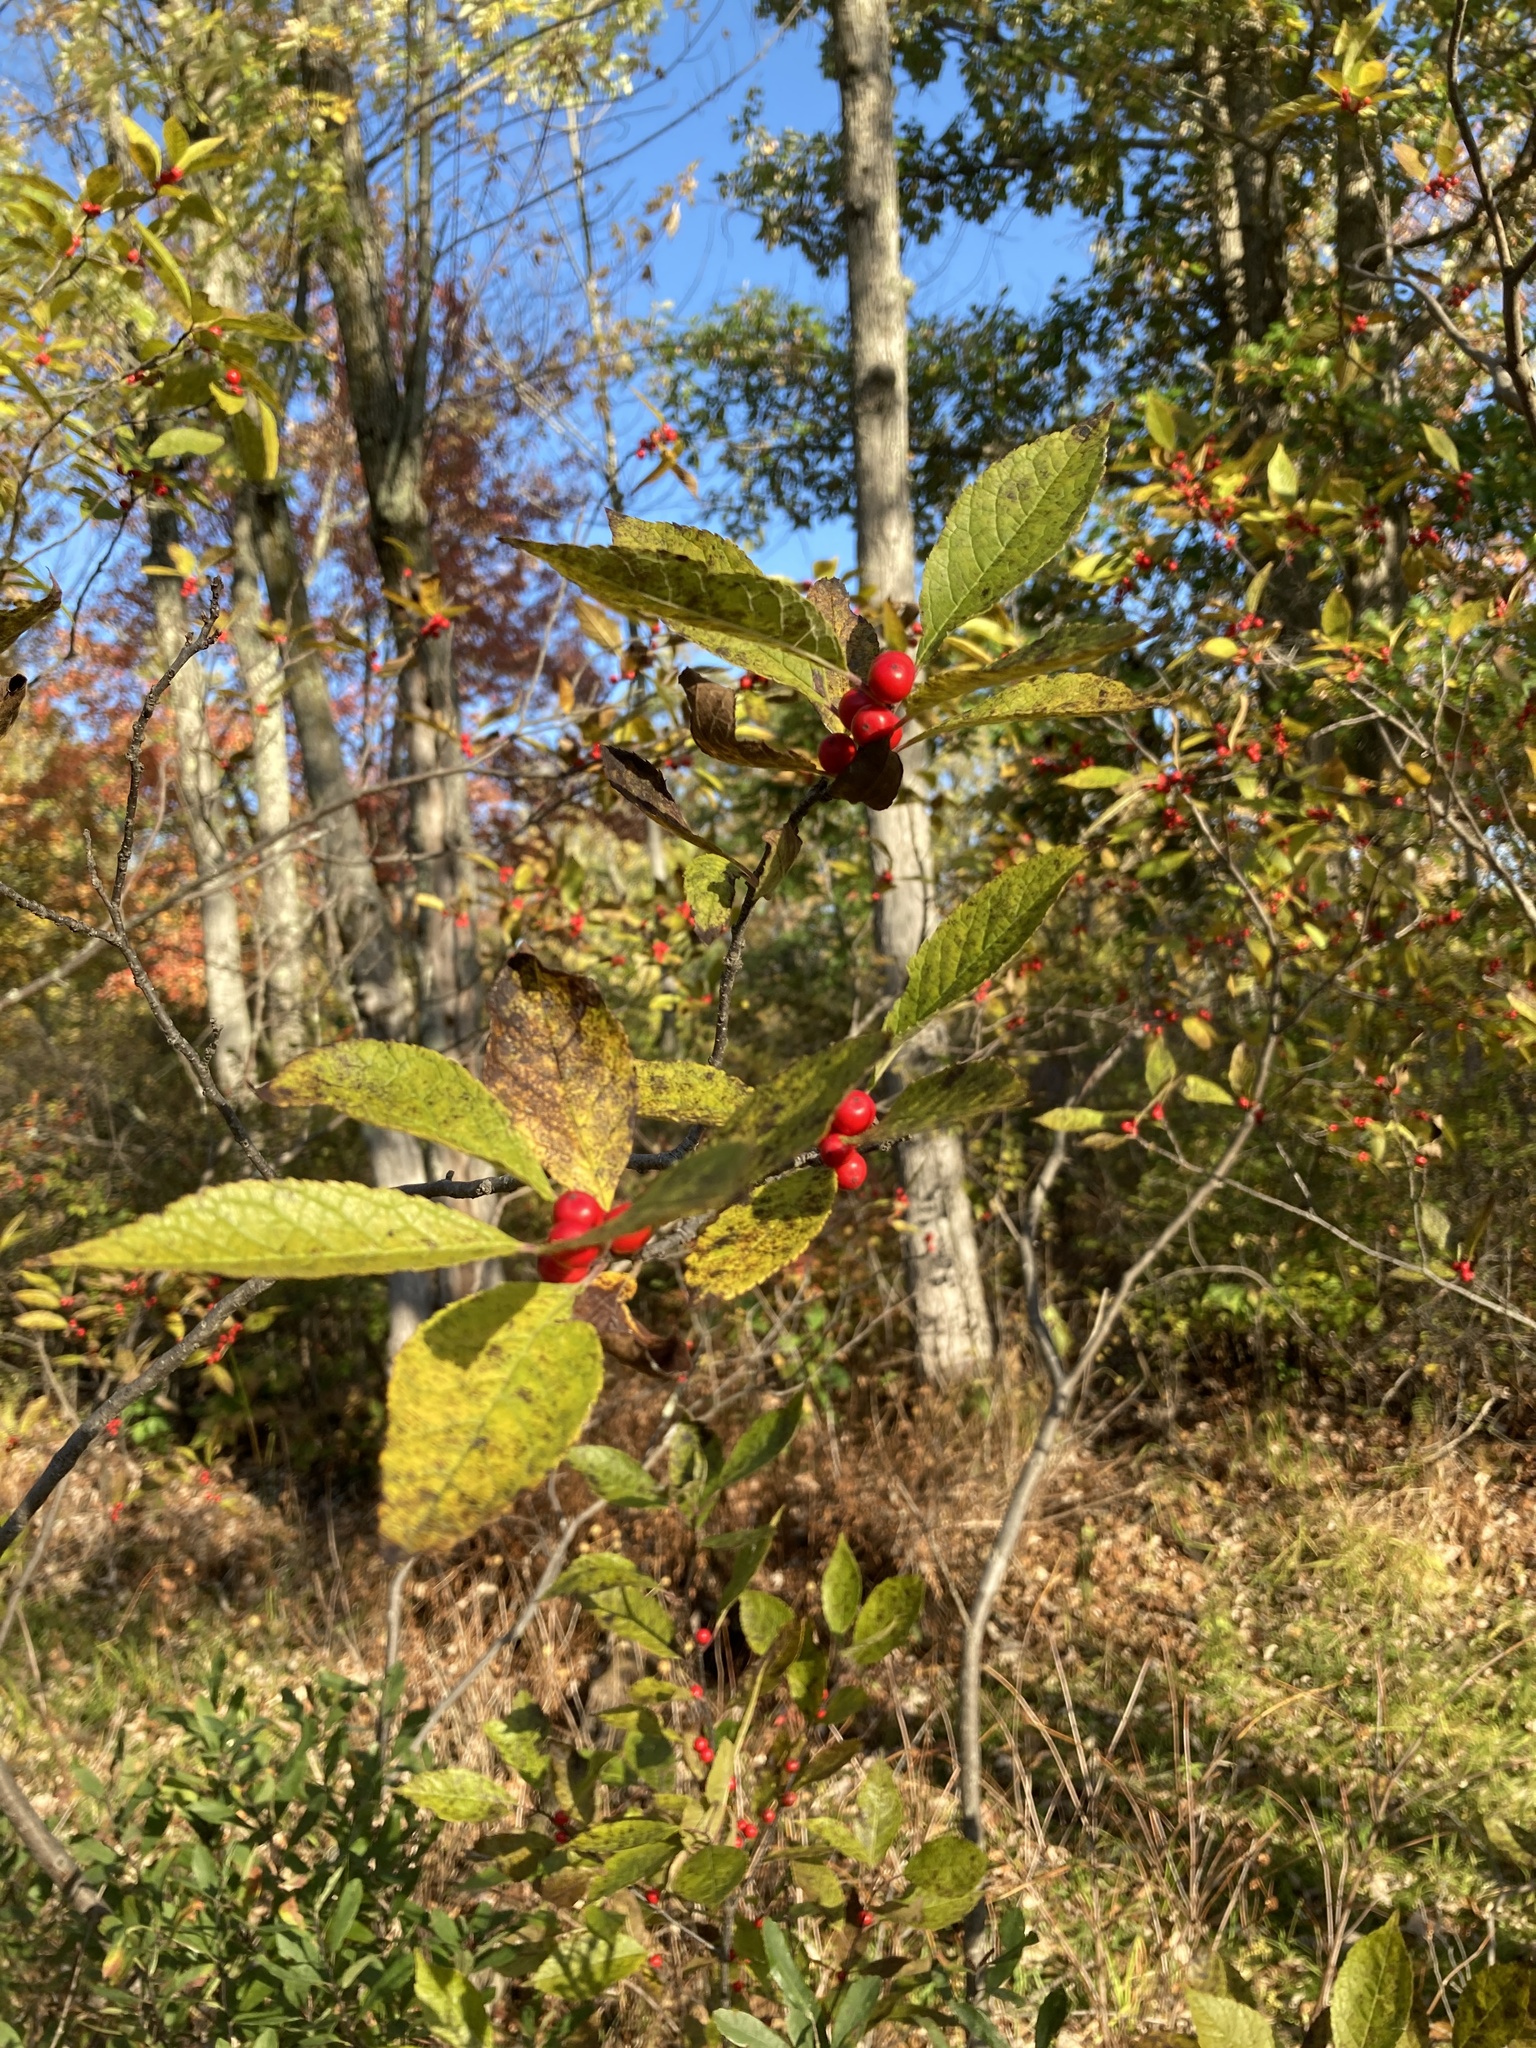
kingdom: Plantae
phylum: Tracheophyta
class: Magnoliopsida
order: Aquifoliales
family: Aquifoliaceae
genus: Ilex
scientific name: Ilex verticillata
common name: Virginia winterberry
